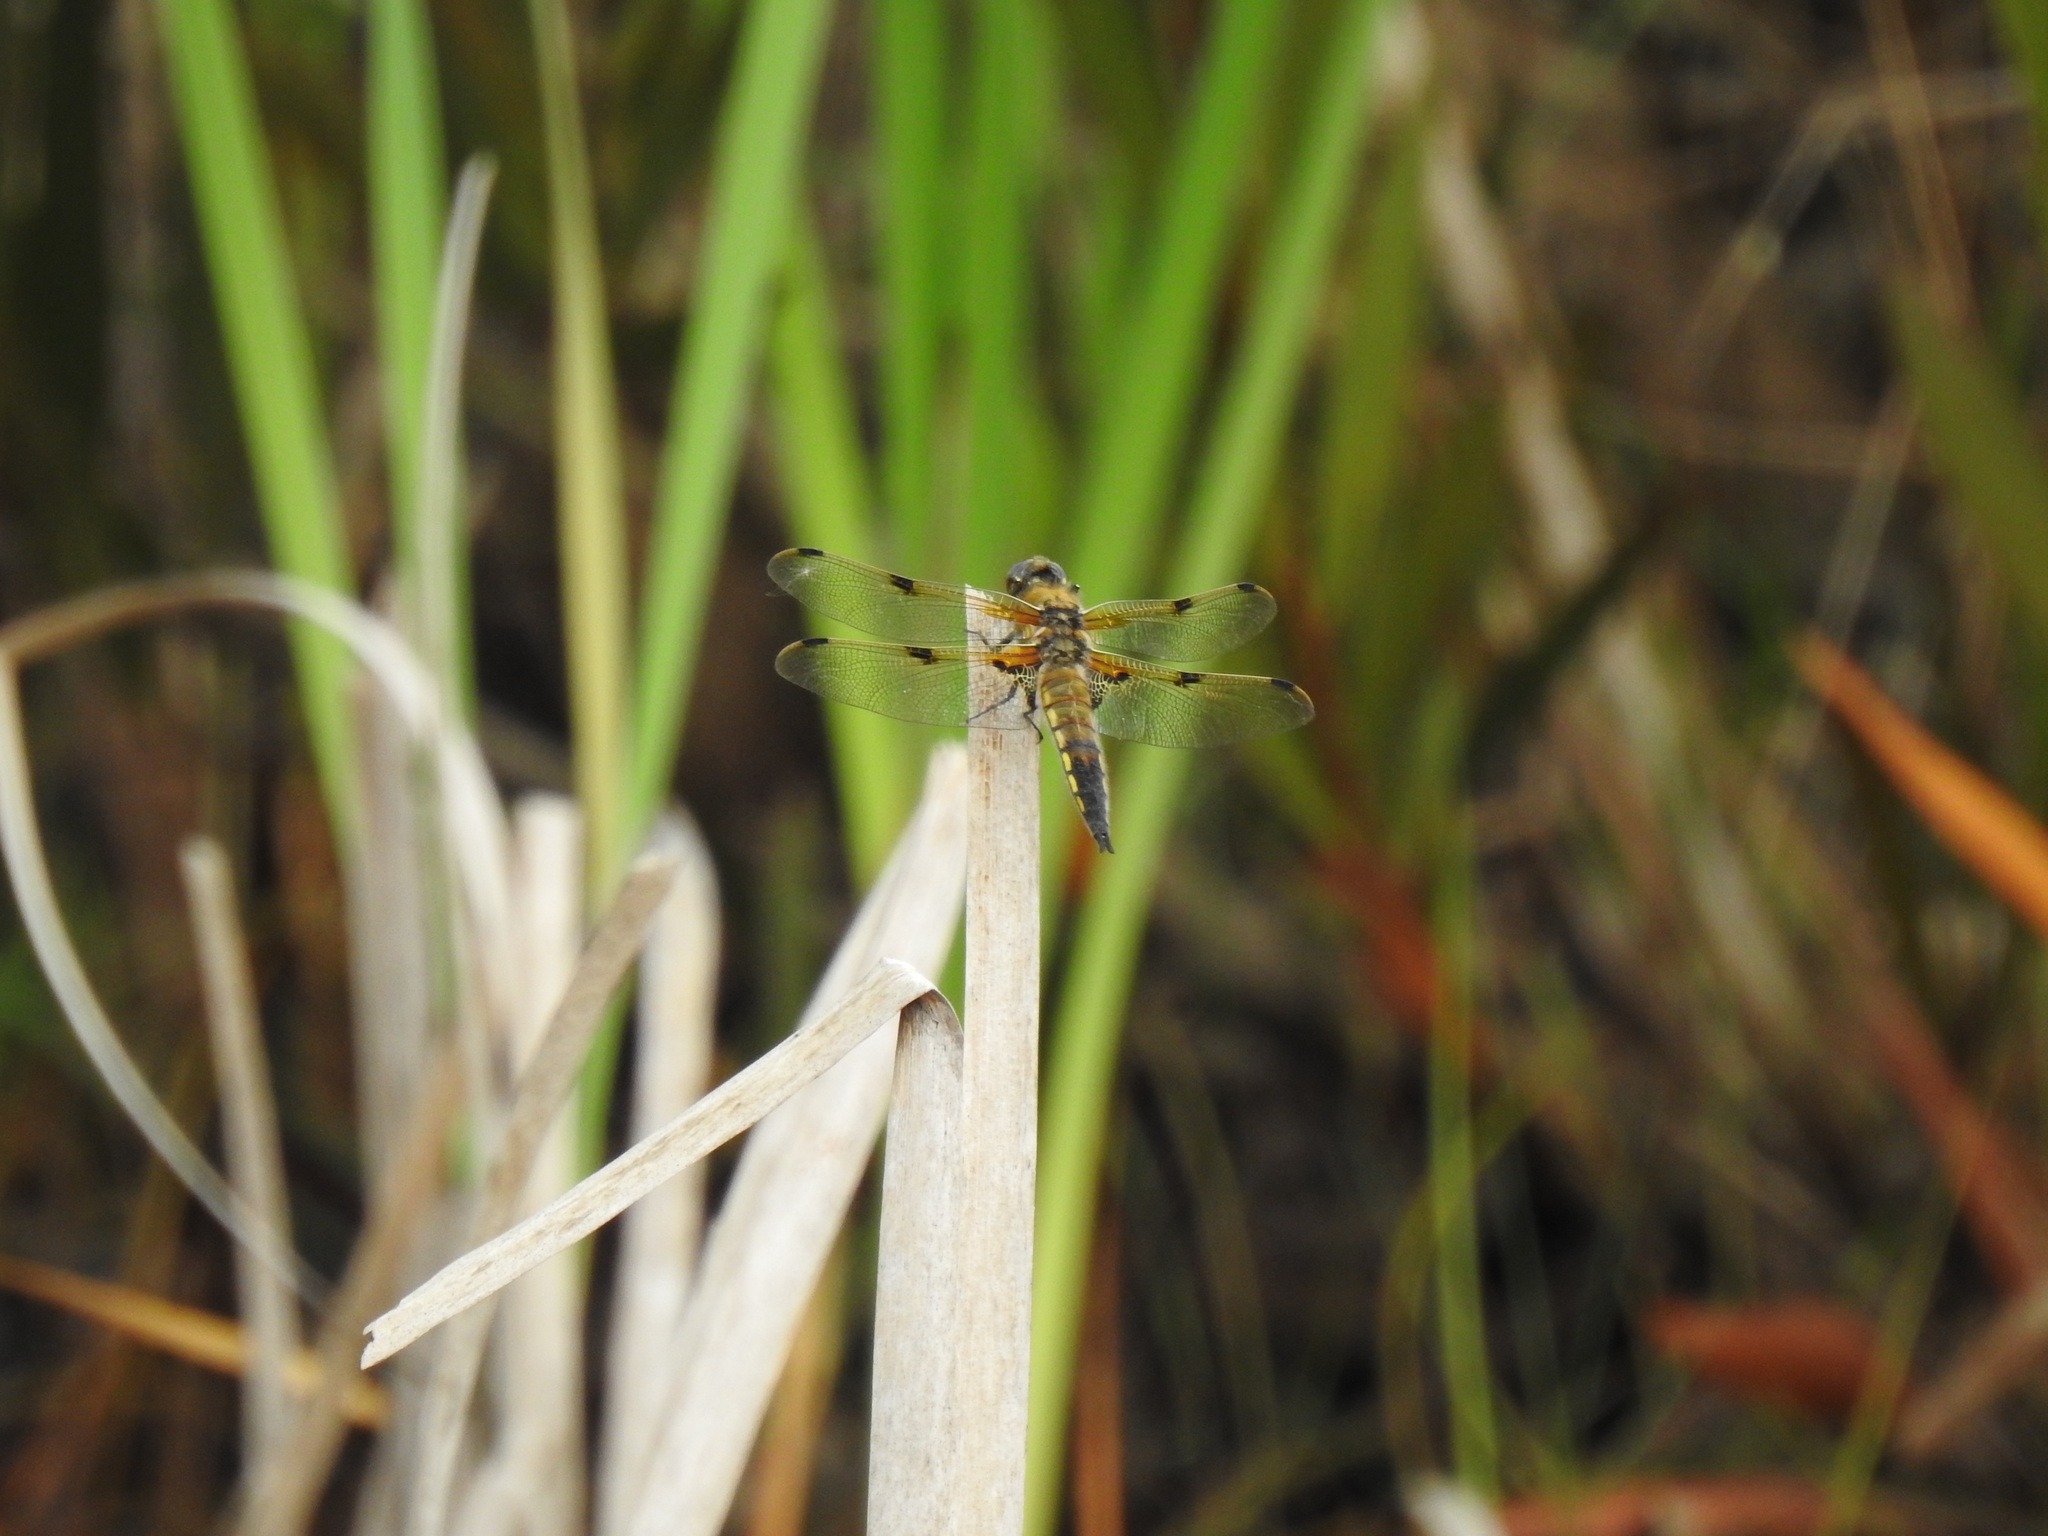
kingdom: Animalia
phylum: Arthropoda
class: Insecta
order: Odonata
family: Libellulidae
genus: Libellula
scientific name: Libellula quadrimaculata
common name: Four-spotted chaser
